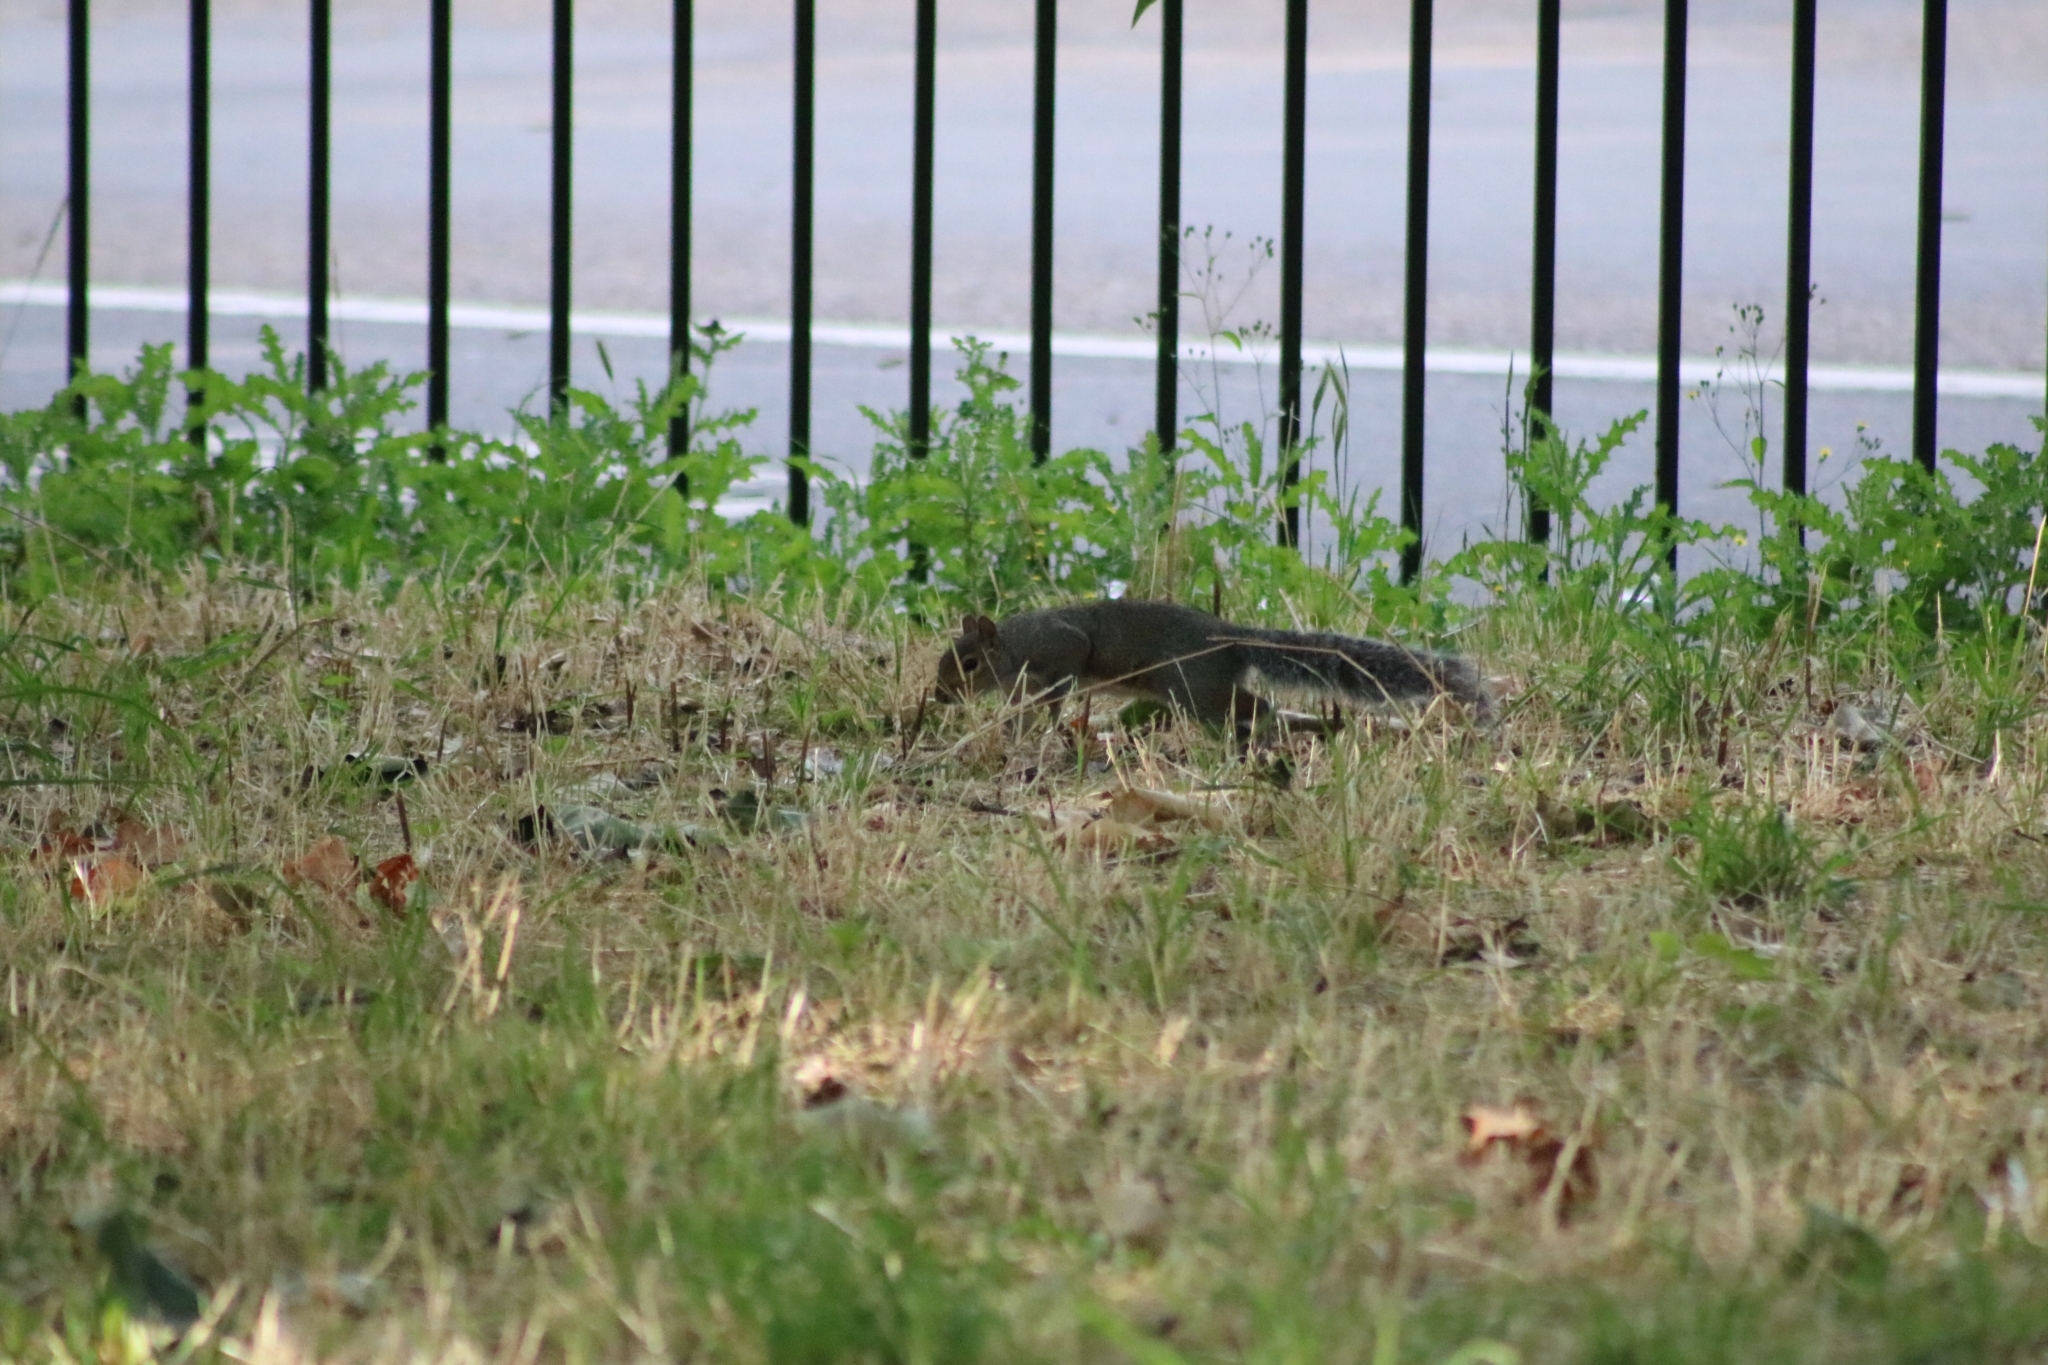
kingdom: Animalia
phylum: Chordata
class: Mammalia
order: Rodentia
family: Sciuridae
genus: Sciurus
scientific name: Sciurus carolinensis
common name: Eastern gray squirrel
